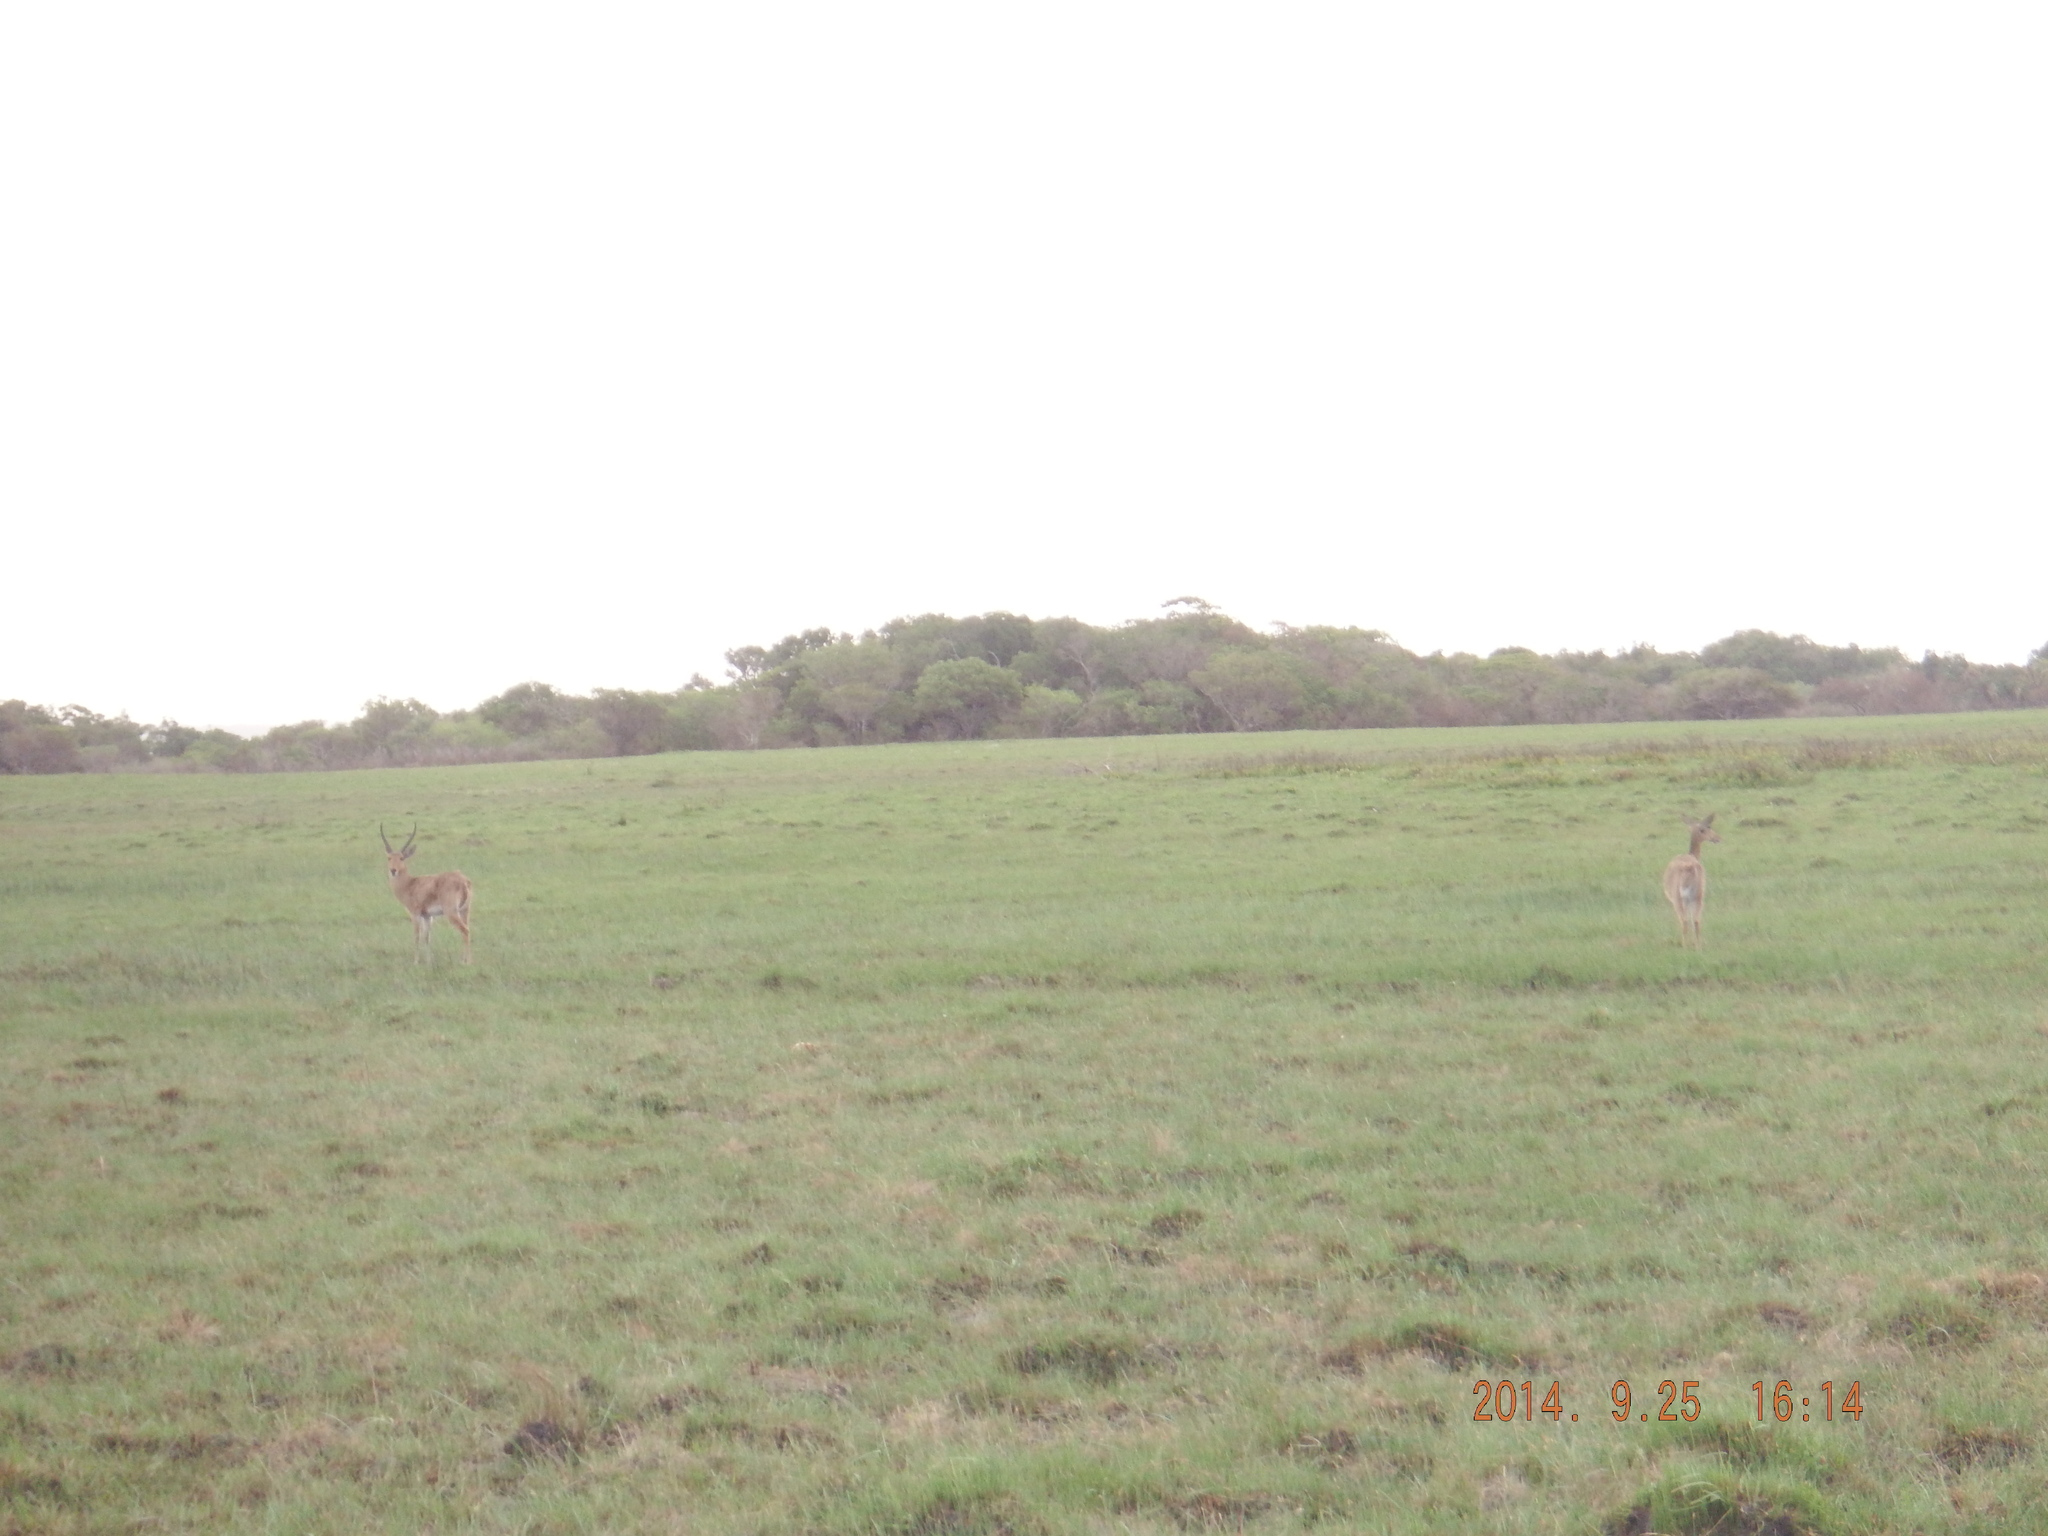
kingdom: Animalia
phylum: Chordata
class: Mammalia
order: Artiodactyla
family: Bovidae
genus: Redunca
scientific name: Redunca arundinum
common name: Southern reedbuck
